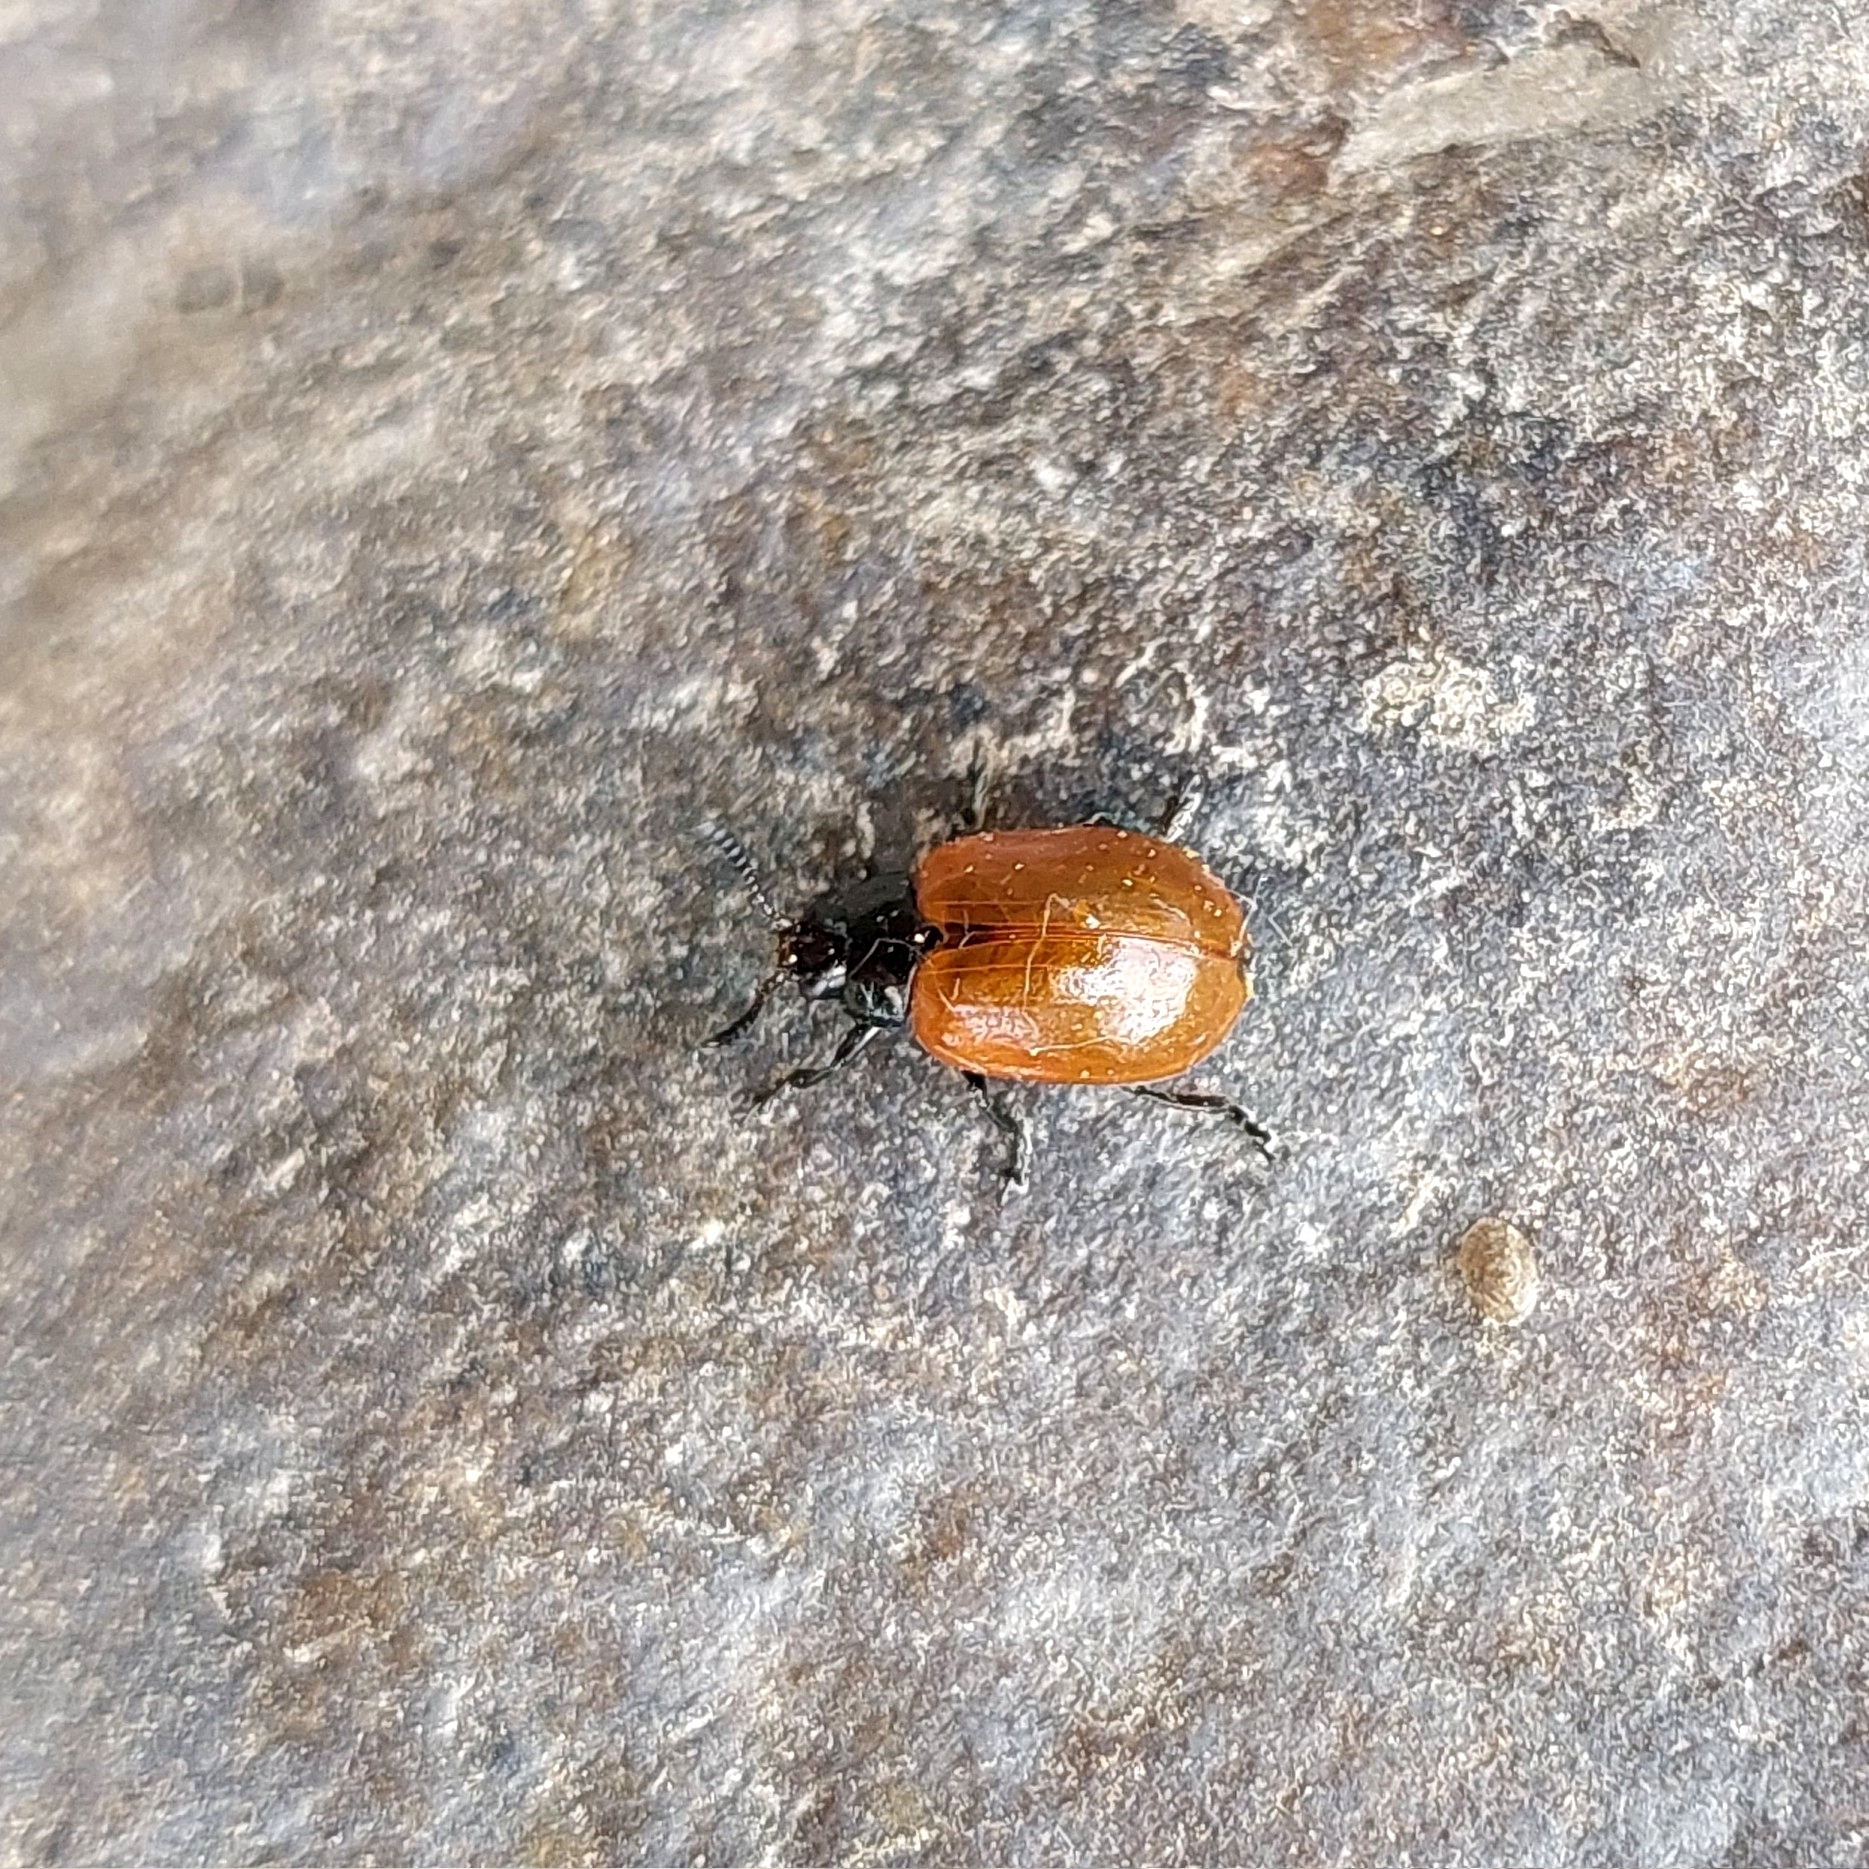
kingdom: Animalia
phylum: Arthropoda
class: Insecta
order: Coleoptera
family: Chrysomelidae
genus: Plagiodera
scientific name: Plagiodera
